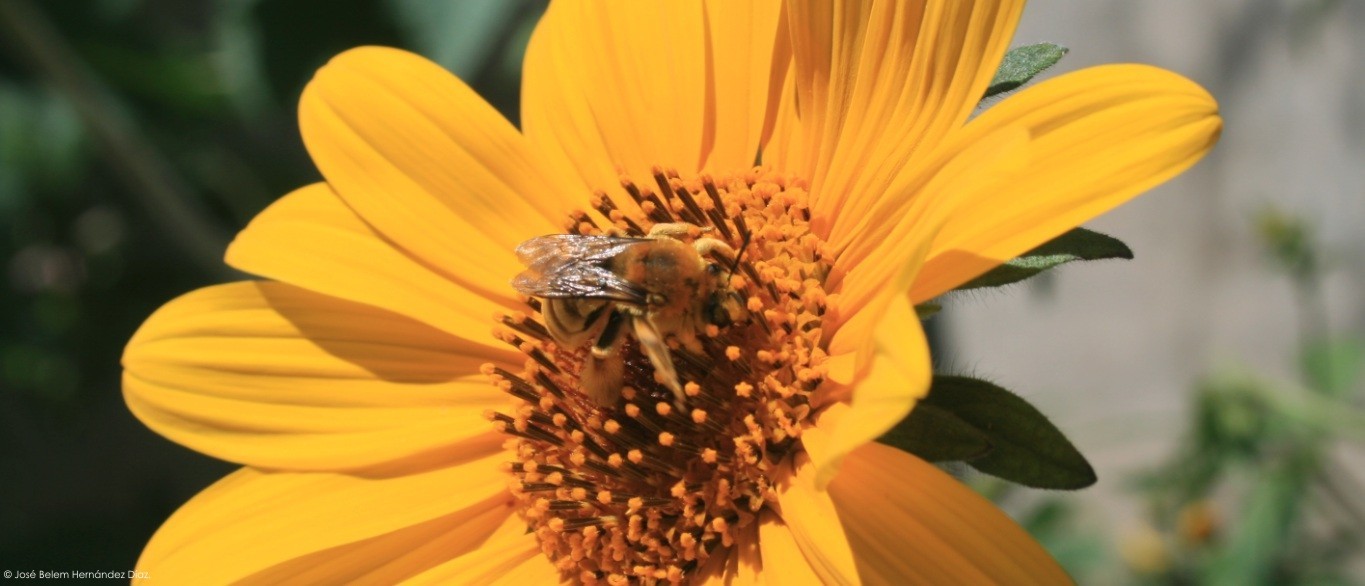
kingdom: Animalia
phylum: Arthropoda
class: Insecta
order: Hymenoptera
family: Apidae
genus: Syntrichalonia
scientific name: Syntrichalonia exquisita
